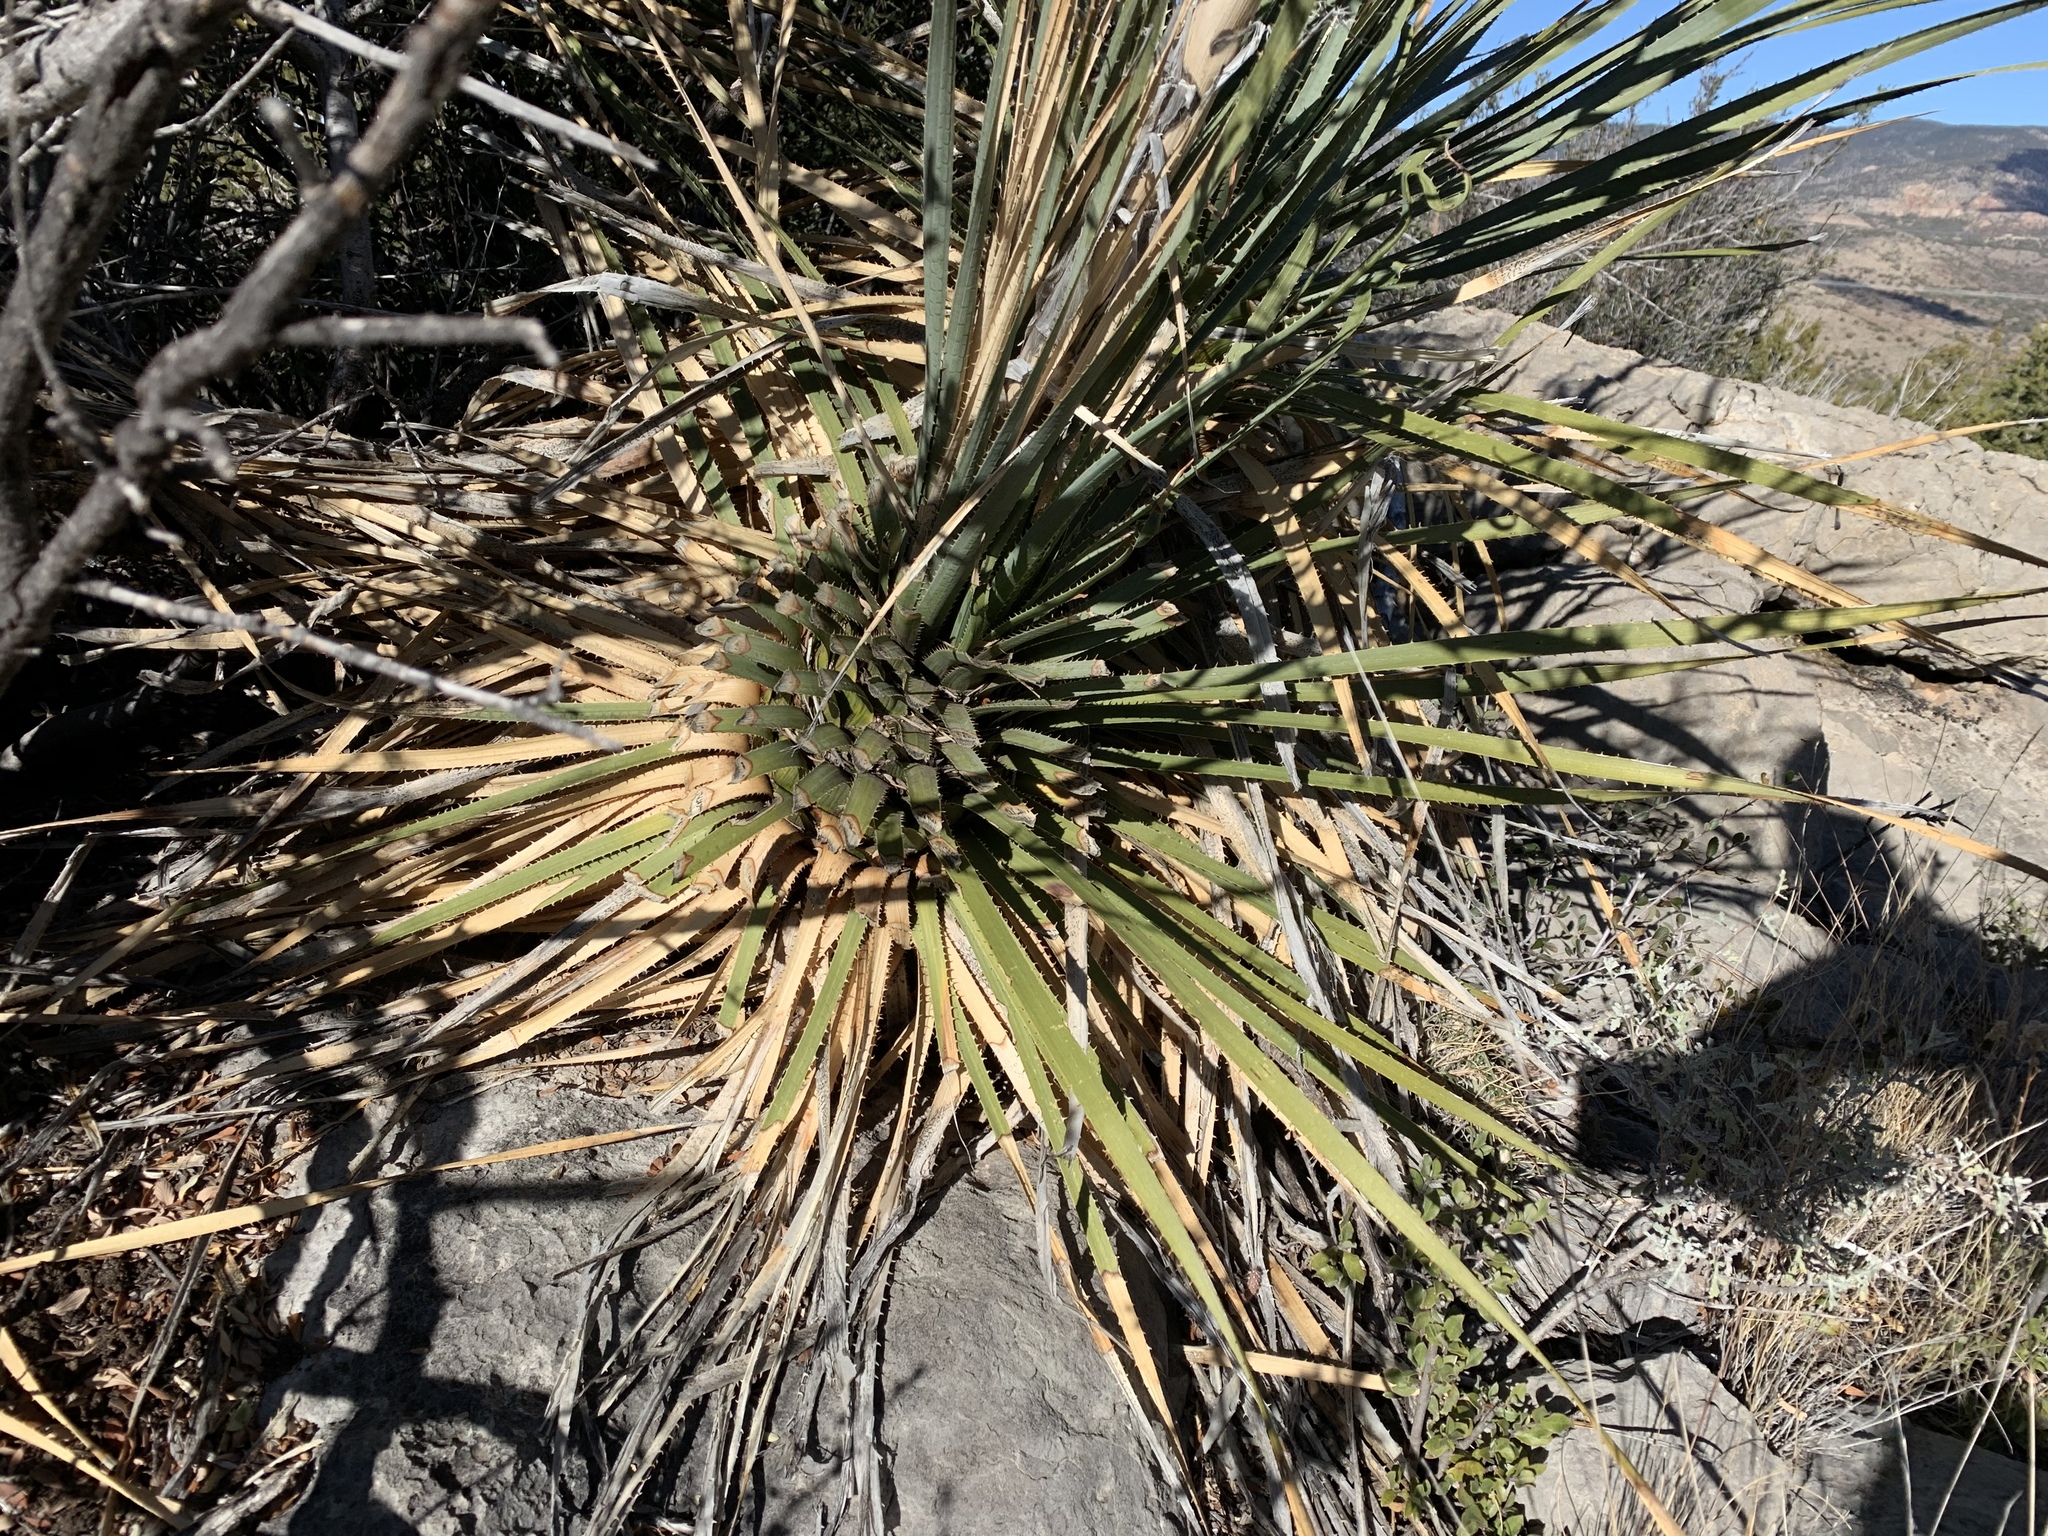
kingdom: Plantae
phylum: Tracheophyta
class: Liliopsida
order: Asparagales
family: Asparagaceae
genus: Dasylirion
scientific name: Dasylirion wheeleri
